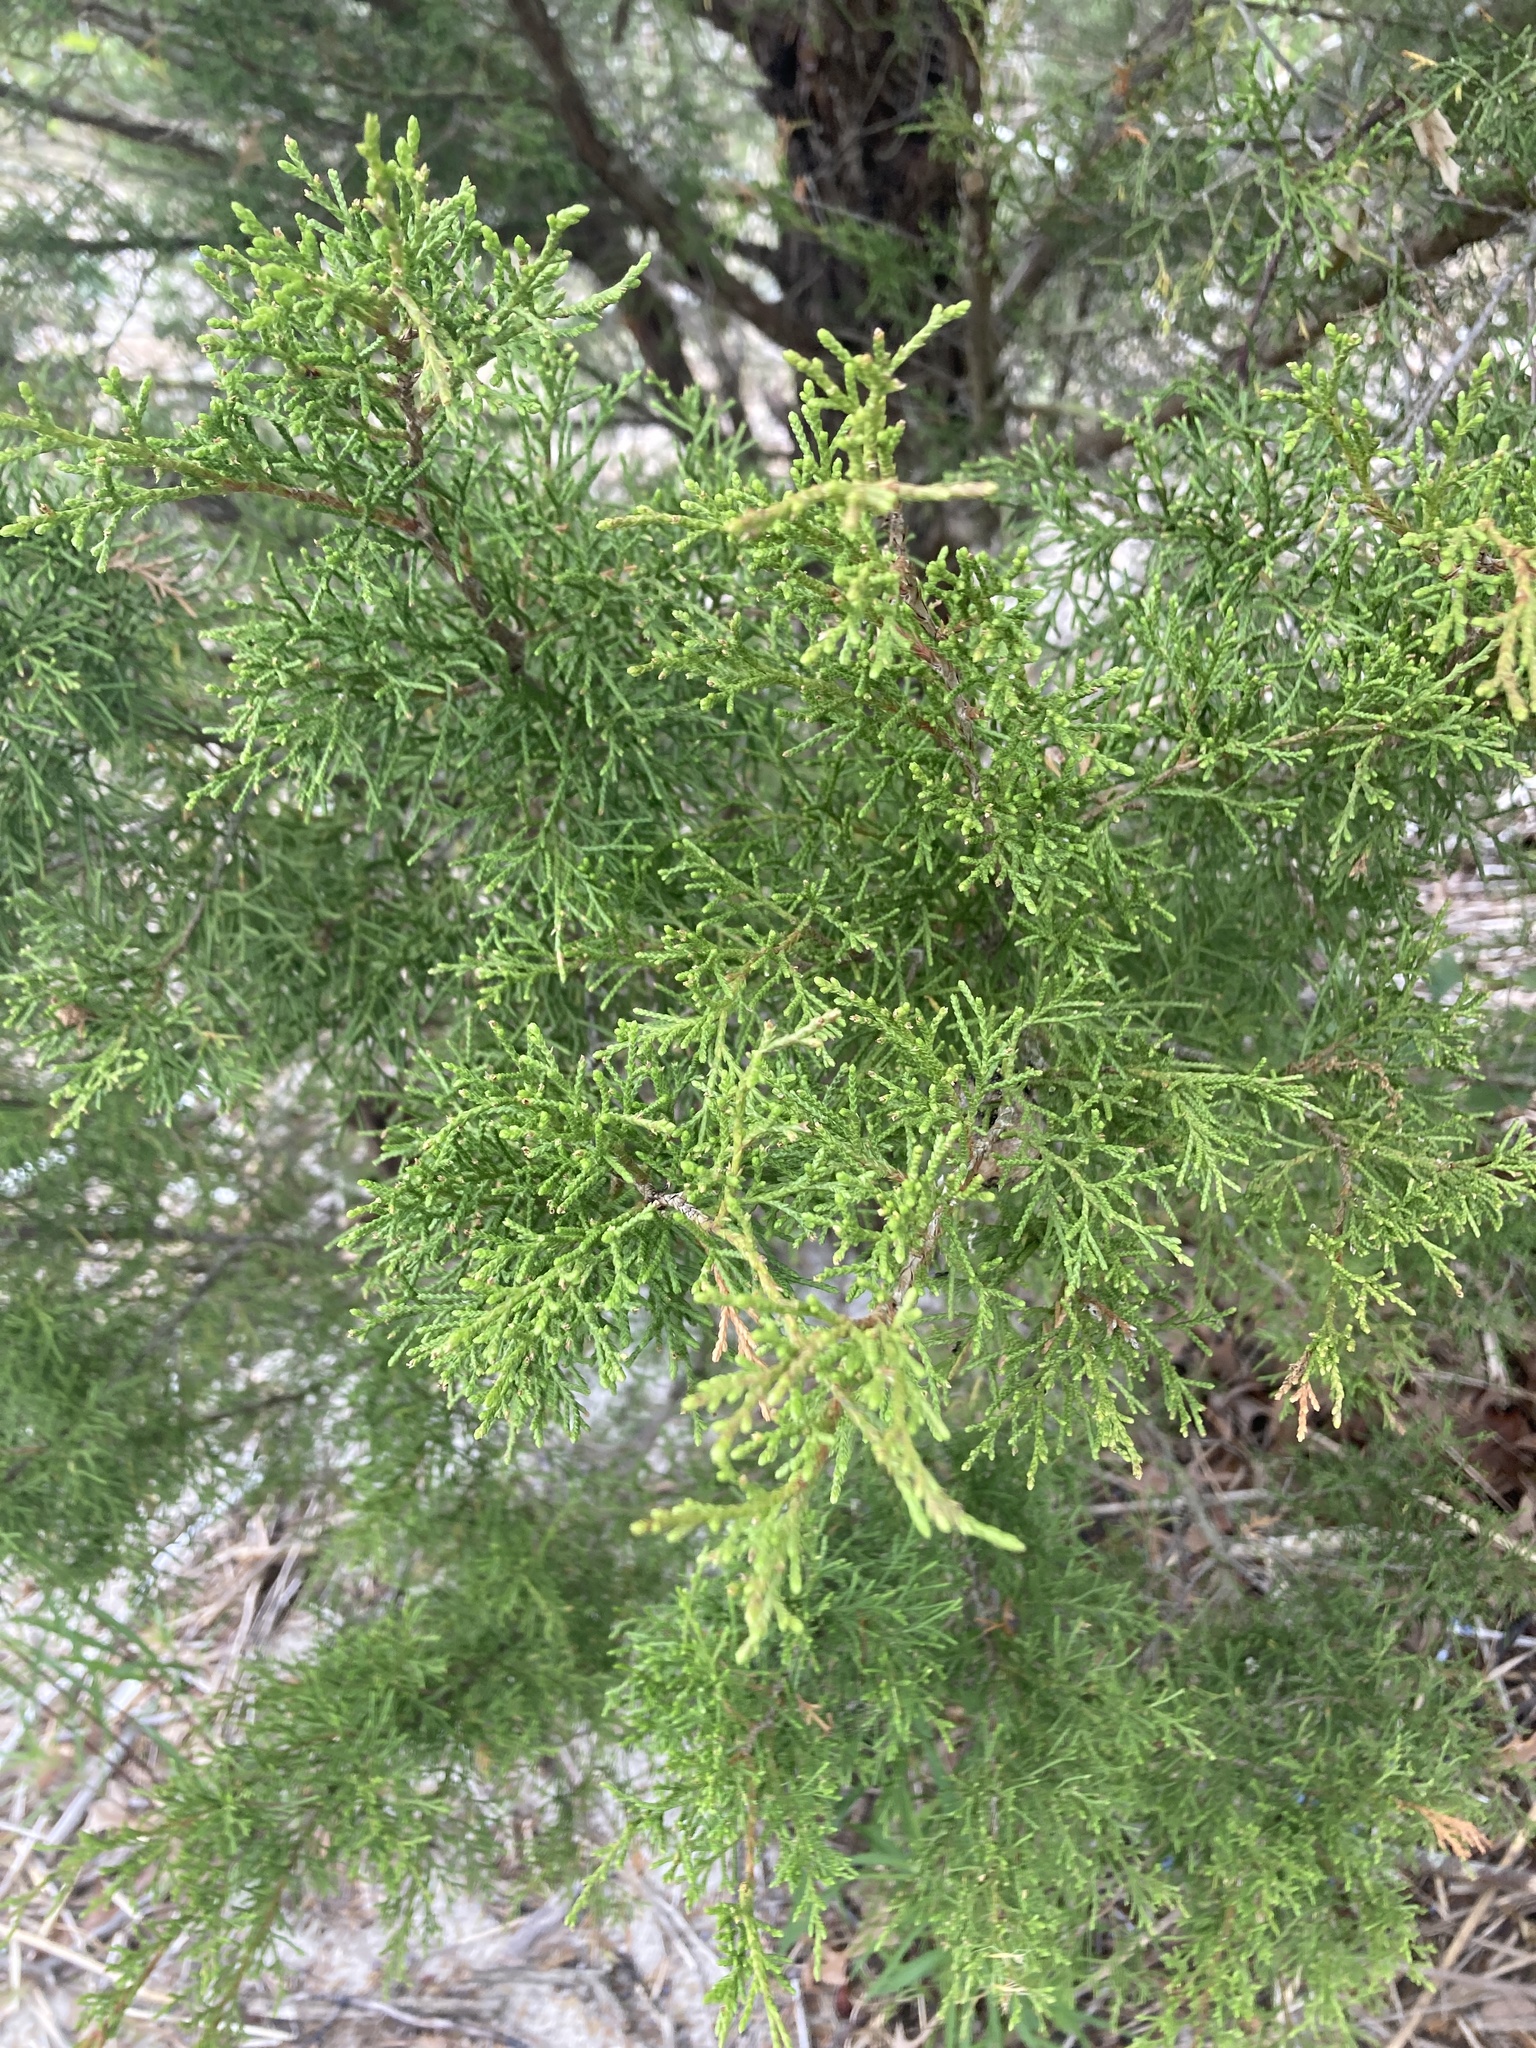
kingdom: Plantae
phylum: Tracheophyta
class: Pinopsida
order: Pinales
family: Cupressaceae
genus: Juniperus
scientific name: Juniperus virginiana
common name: Red juniper
